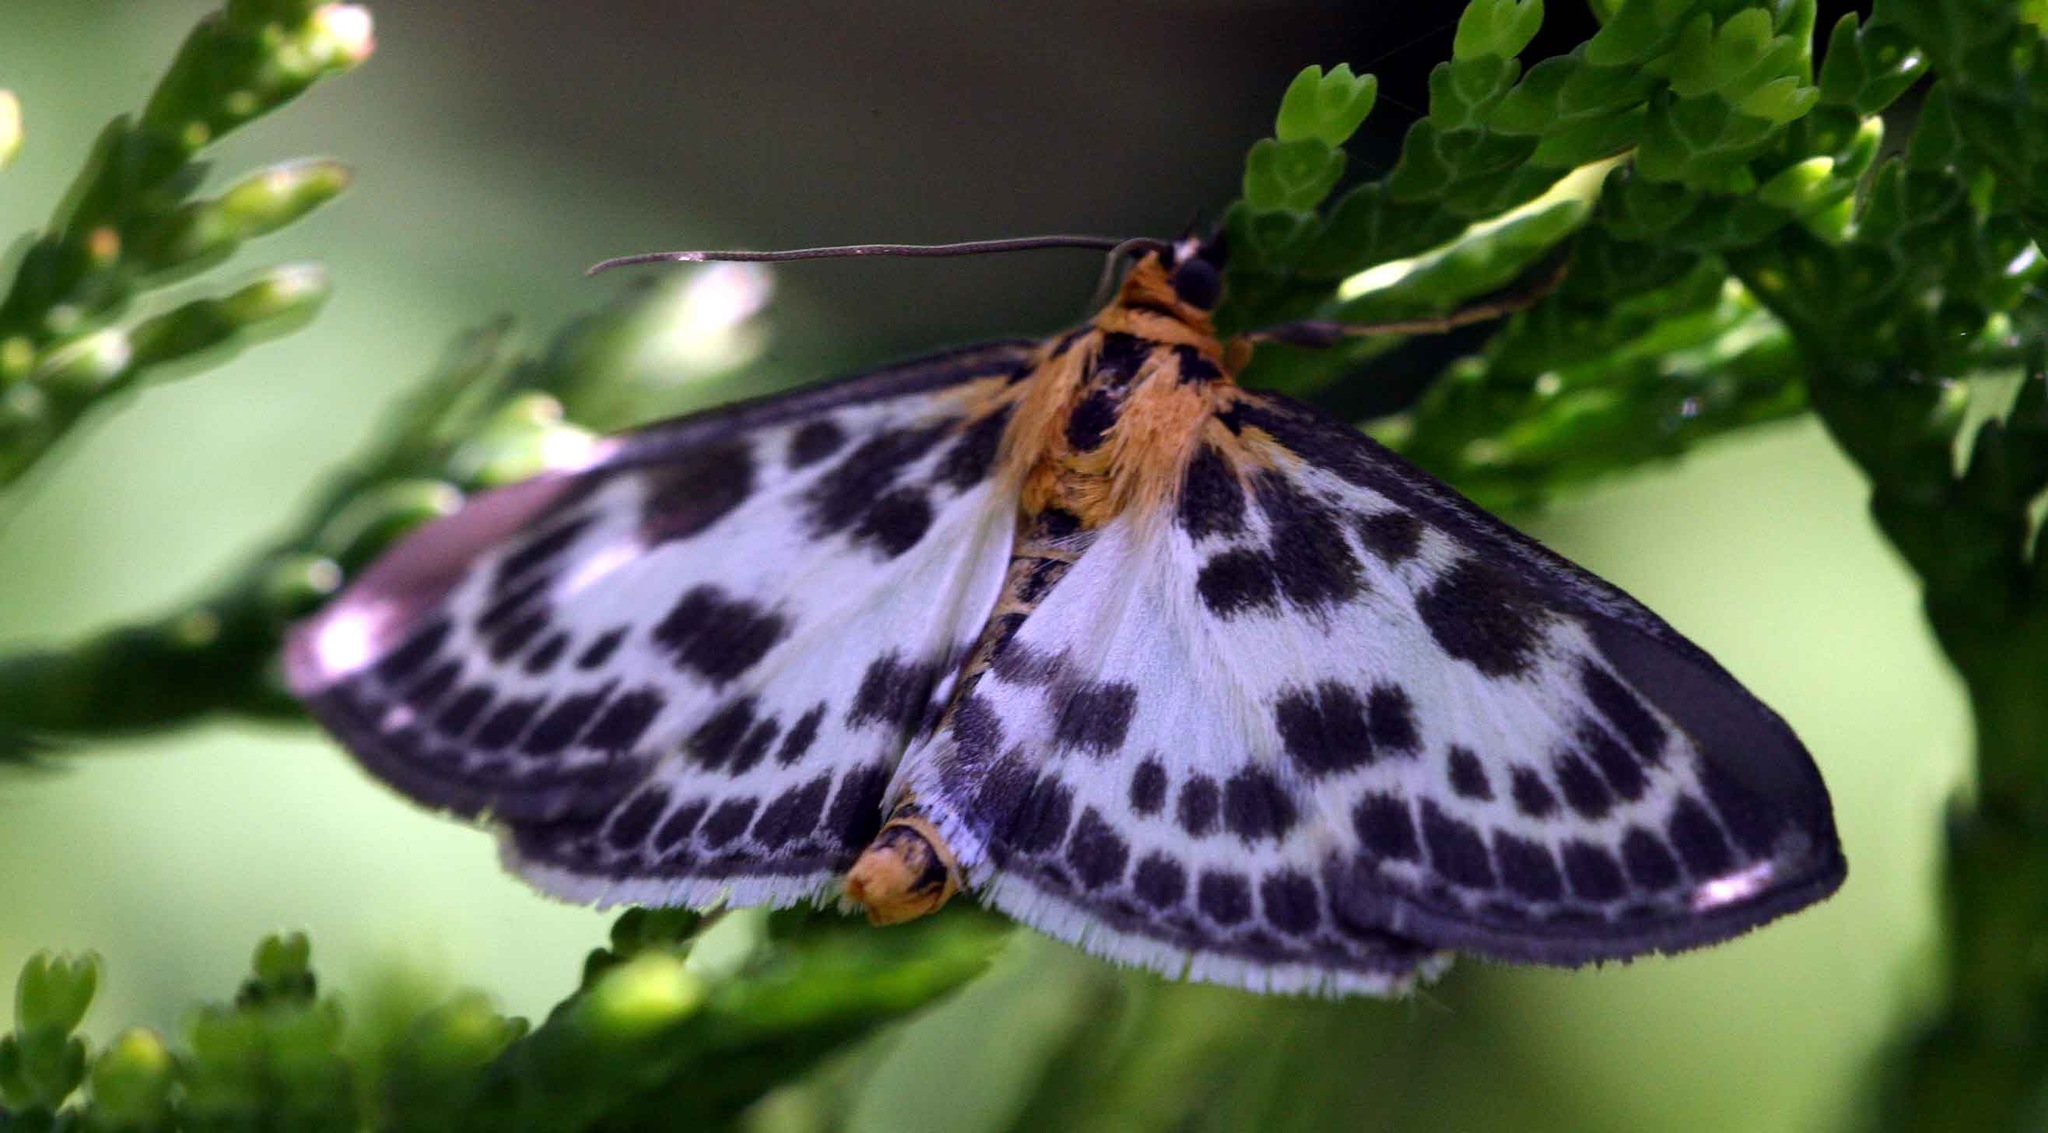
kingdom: Animalia
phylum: Arthropoda
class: Insecta
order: Lepidoptera
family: Crambidae
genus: Anania
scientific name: Anania hortulata
